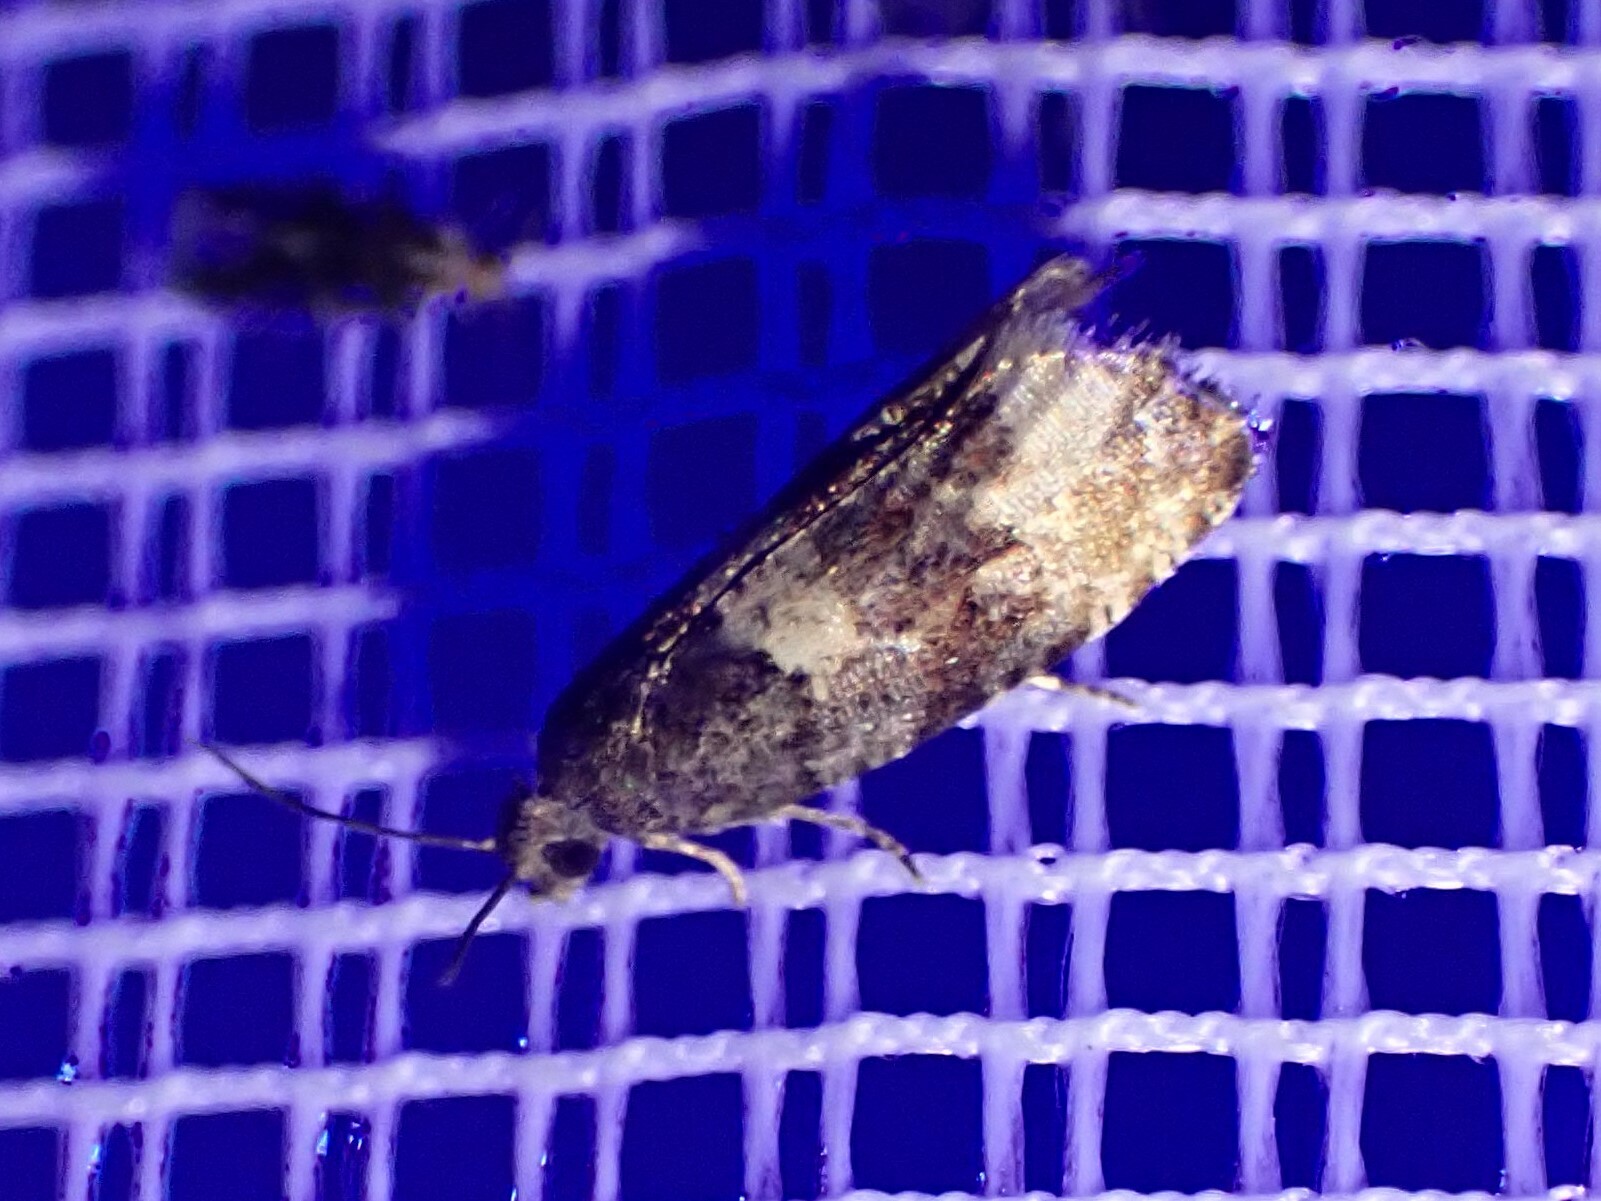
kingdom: Animalia
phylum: Arthropoda
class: Insecta
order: Lepidoptera
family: Tortricidae
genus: Hulda
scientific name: Hulda impudens
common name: Impudent hulda moth
